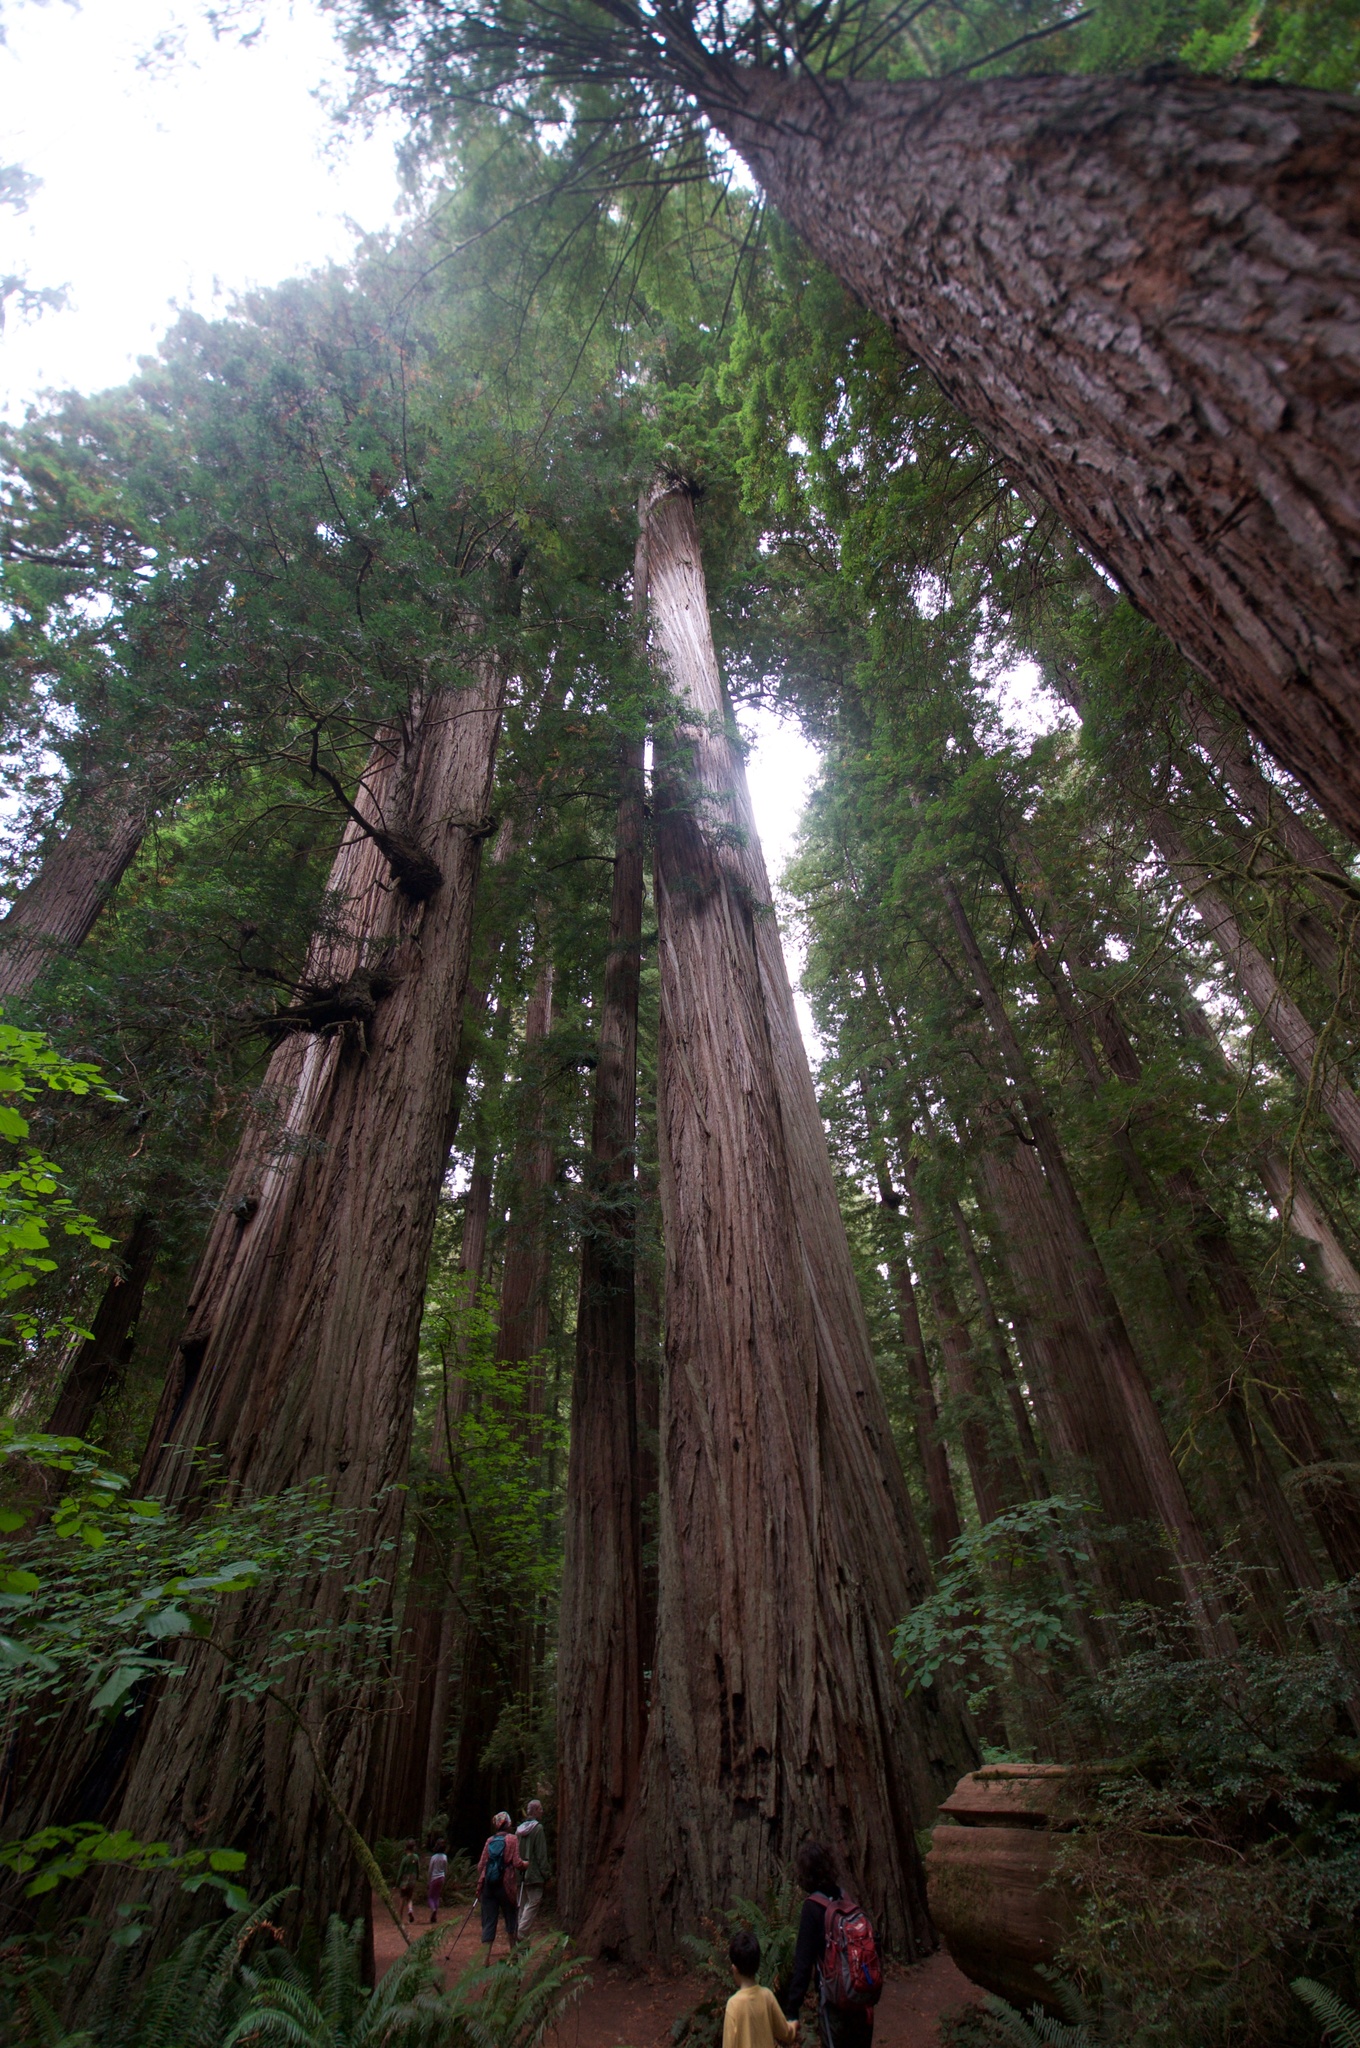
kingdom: Plantae
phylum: Tracheophyta
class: Pinopsida
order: Pinales
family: Cupressaceae
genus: Sequoia
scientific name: Sequoia sempervirens
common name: Coast redwood
